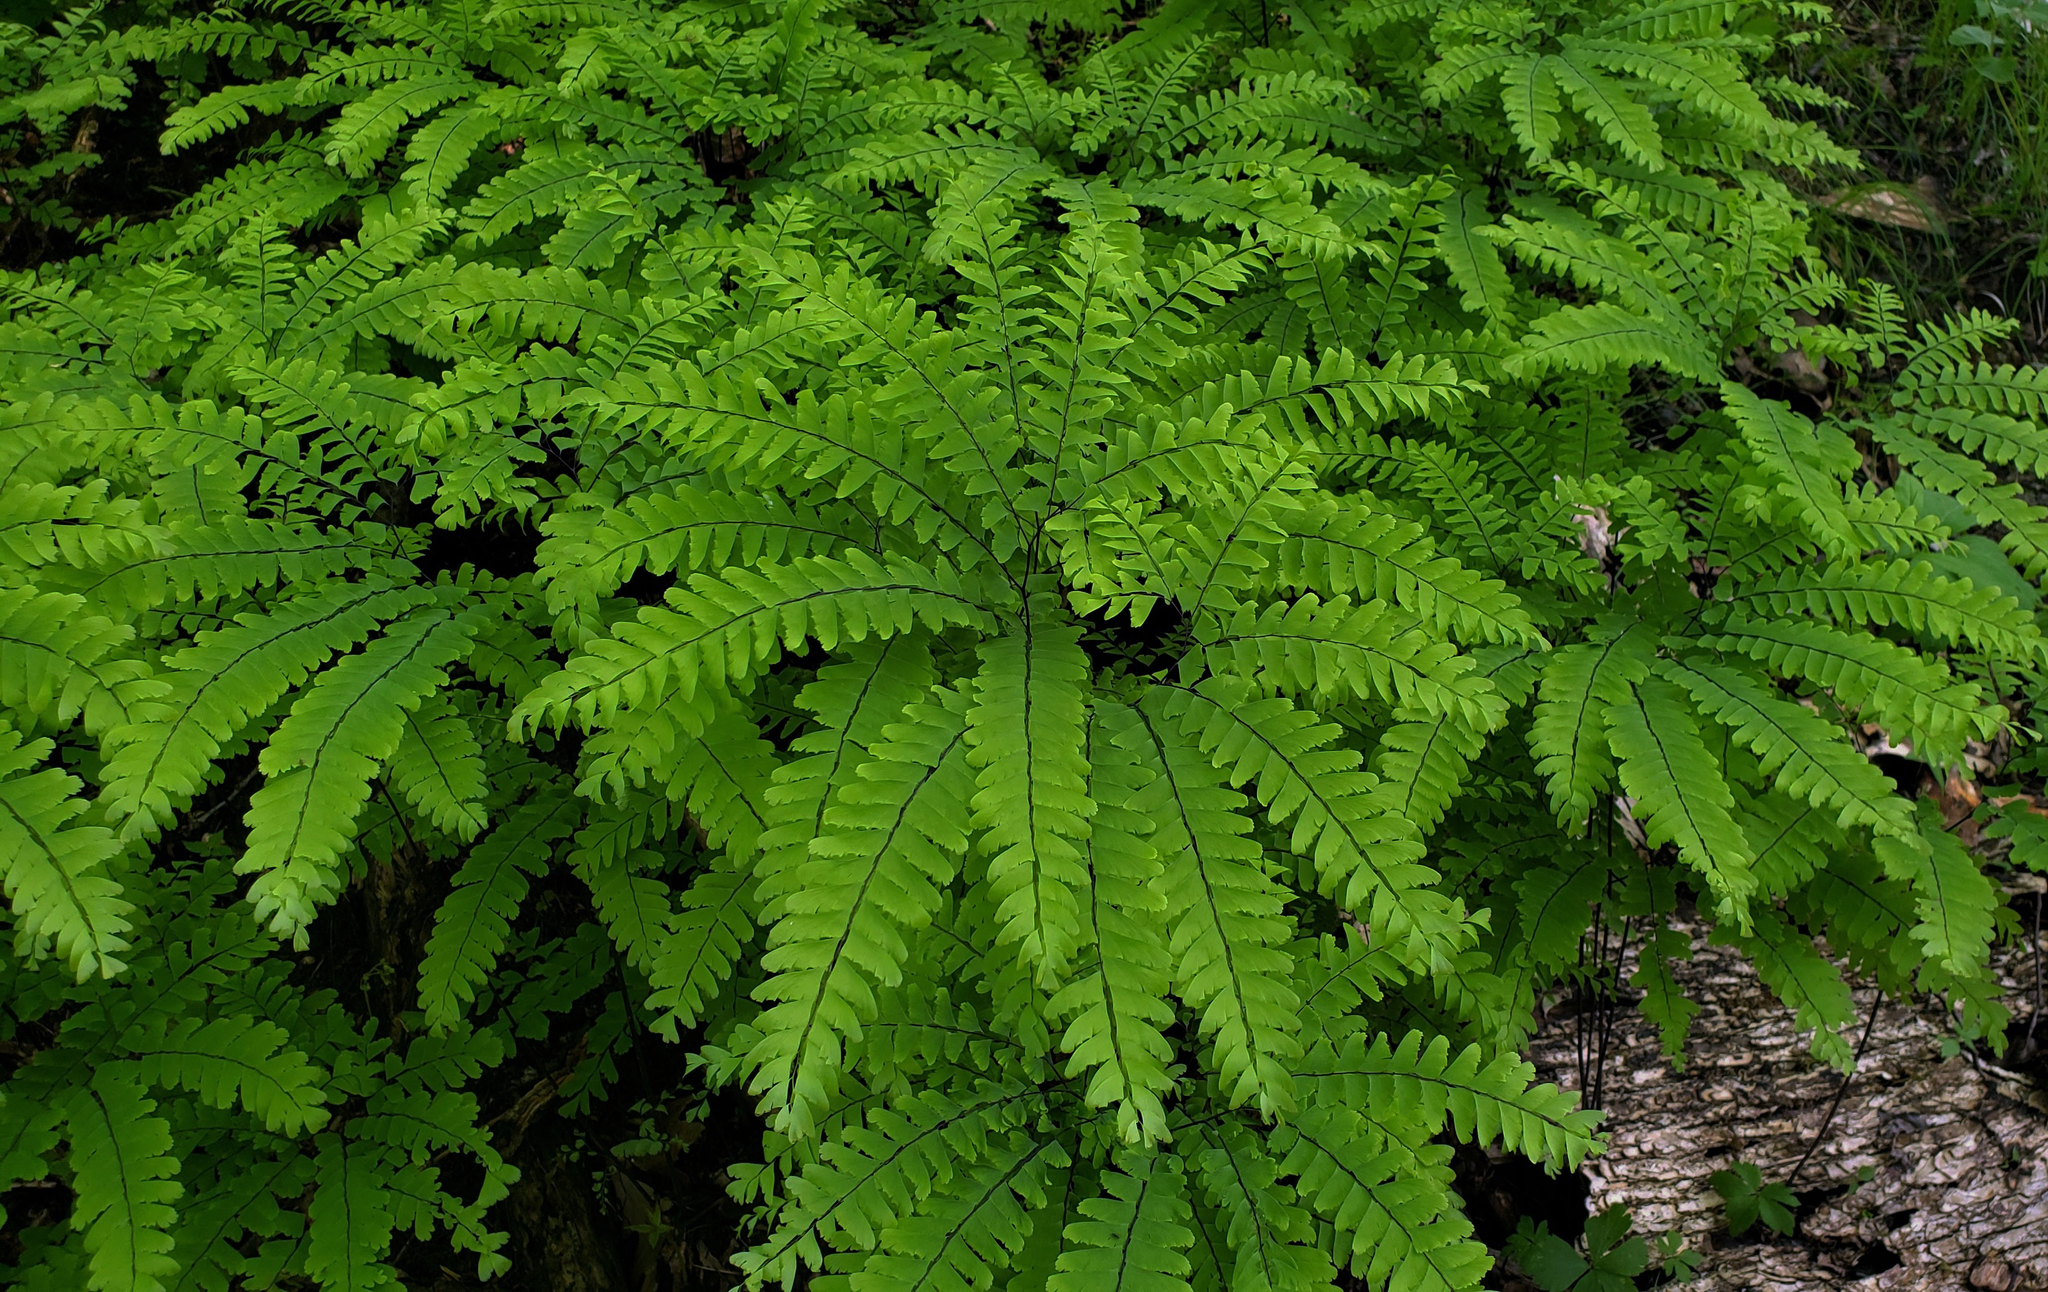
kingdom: Plantae
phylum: Tracheophyta
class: Polypodiopsida
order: Polypodiales
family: Pteridaceae
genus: Adiantum
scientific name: Adiantum pedatum
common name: Five-finger fern
